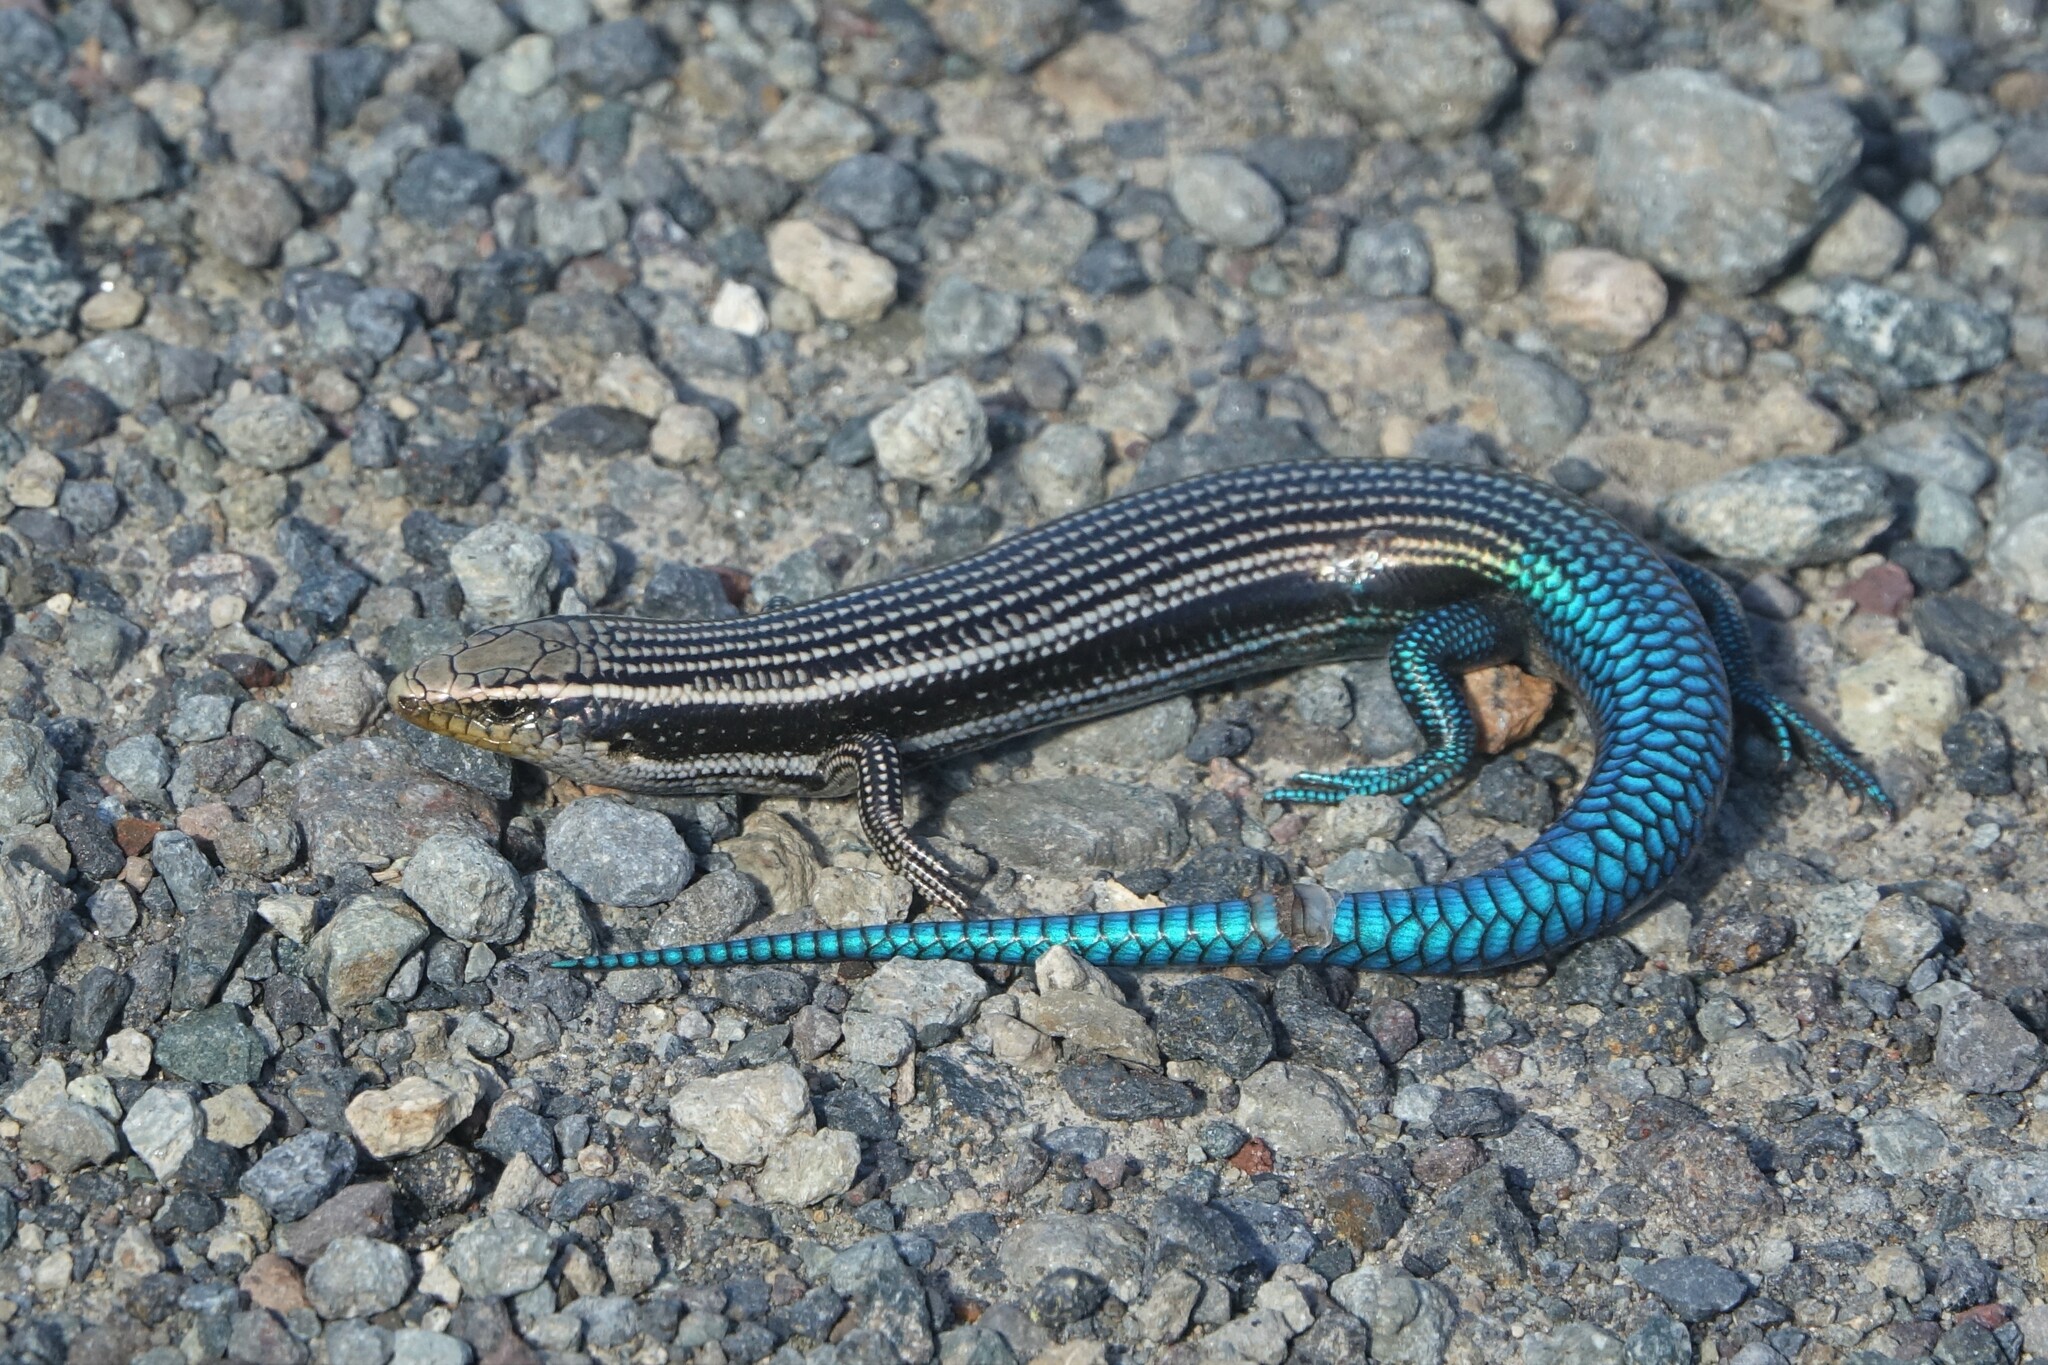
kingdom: Animalia
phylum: Chordata
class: Squamata
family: Scincidae
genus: Chalcides
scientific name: Chalcides sexlineatus
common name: Gran canaria skink
